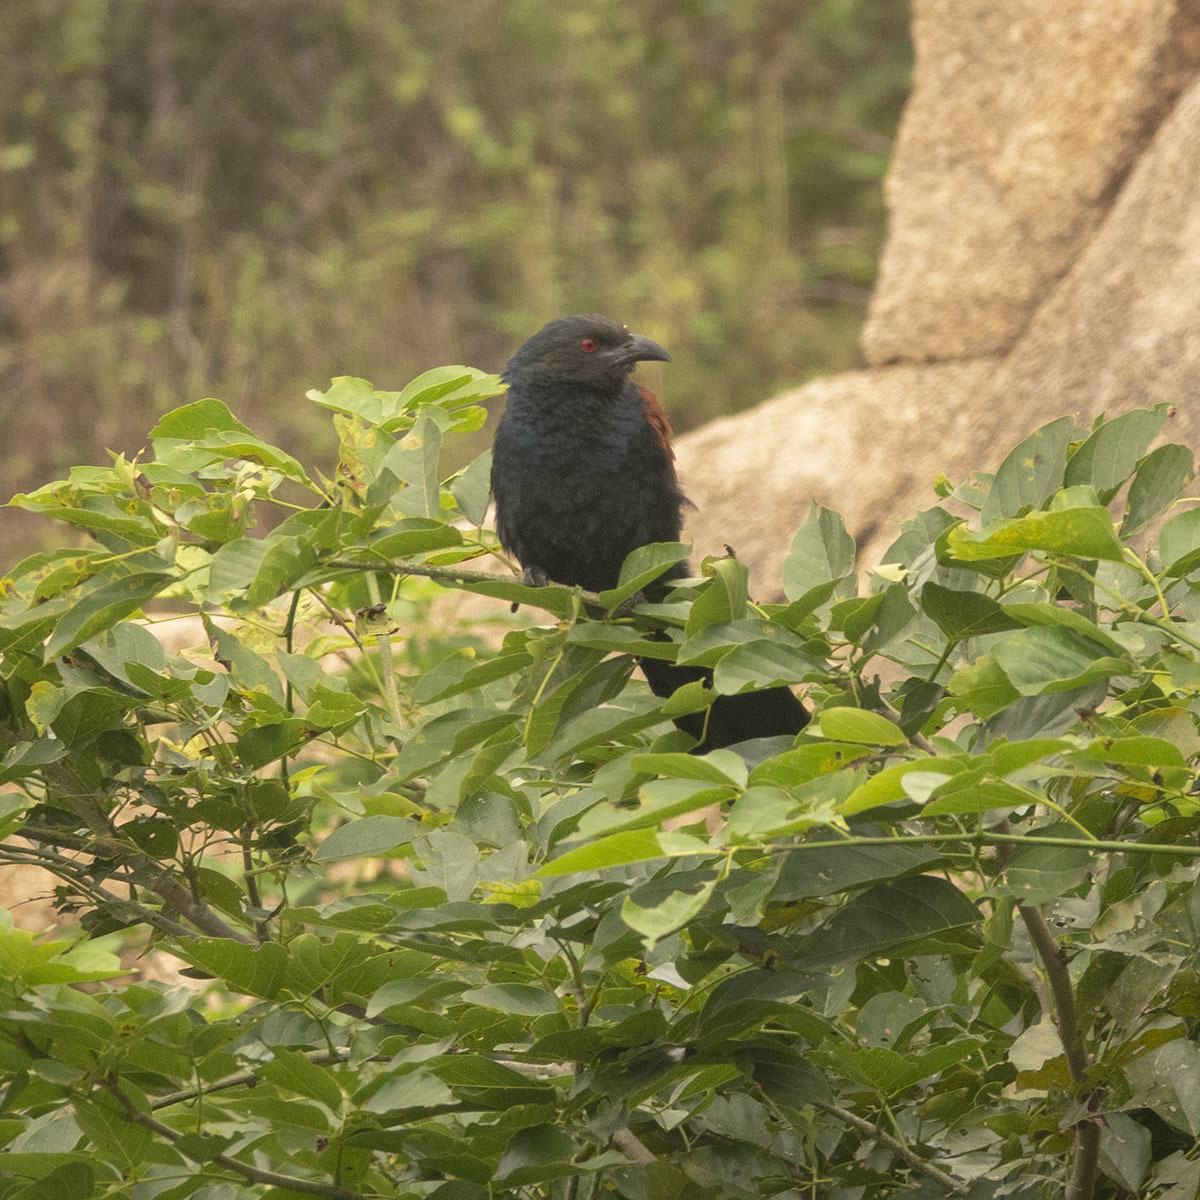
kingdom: Animalia
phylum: Chordata
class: Aves
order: Cuculiformes
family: Cuculidae
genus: Centropus
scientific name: Centropus sinensis
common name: Greater coucal
